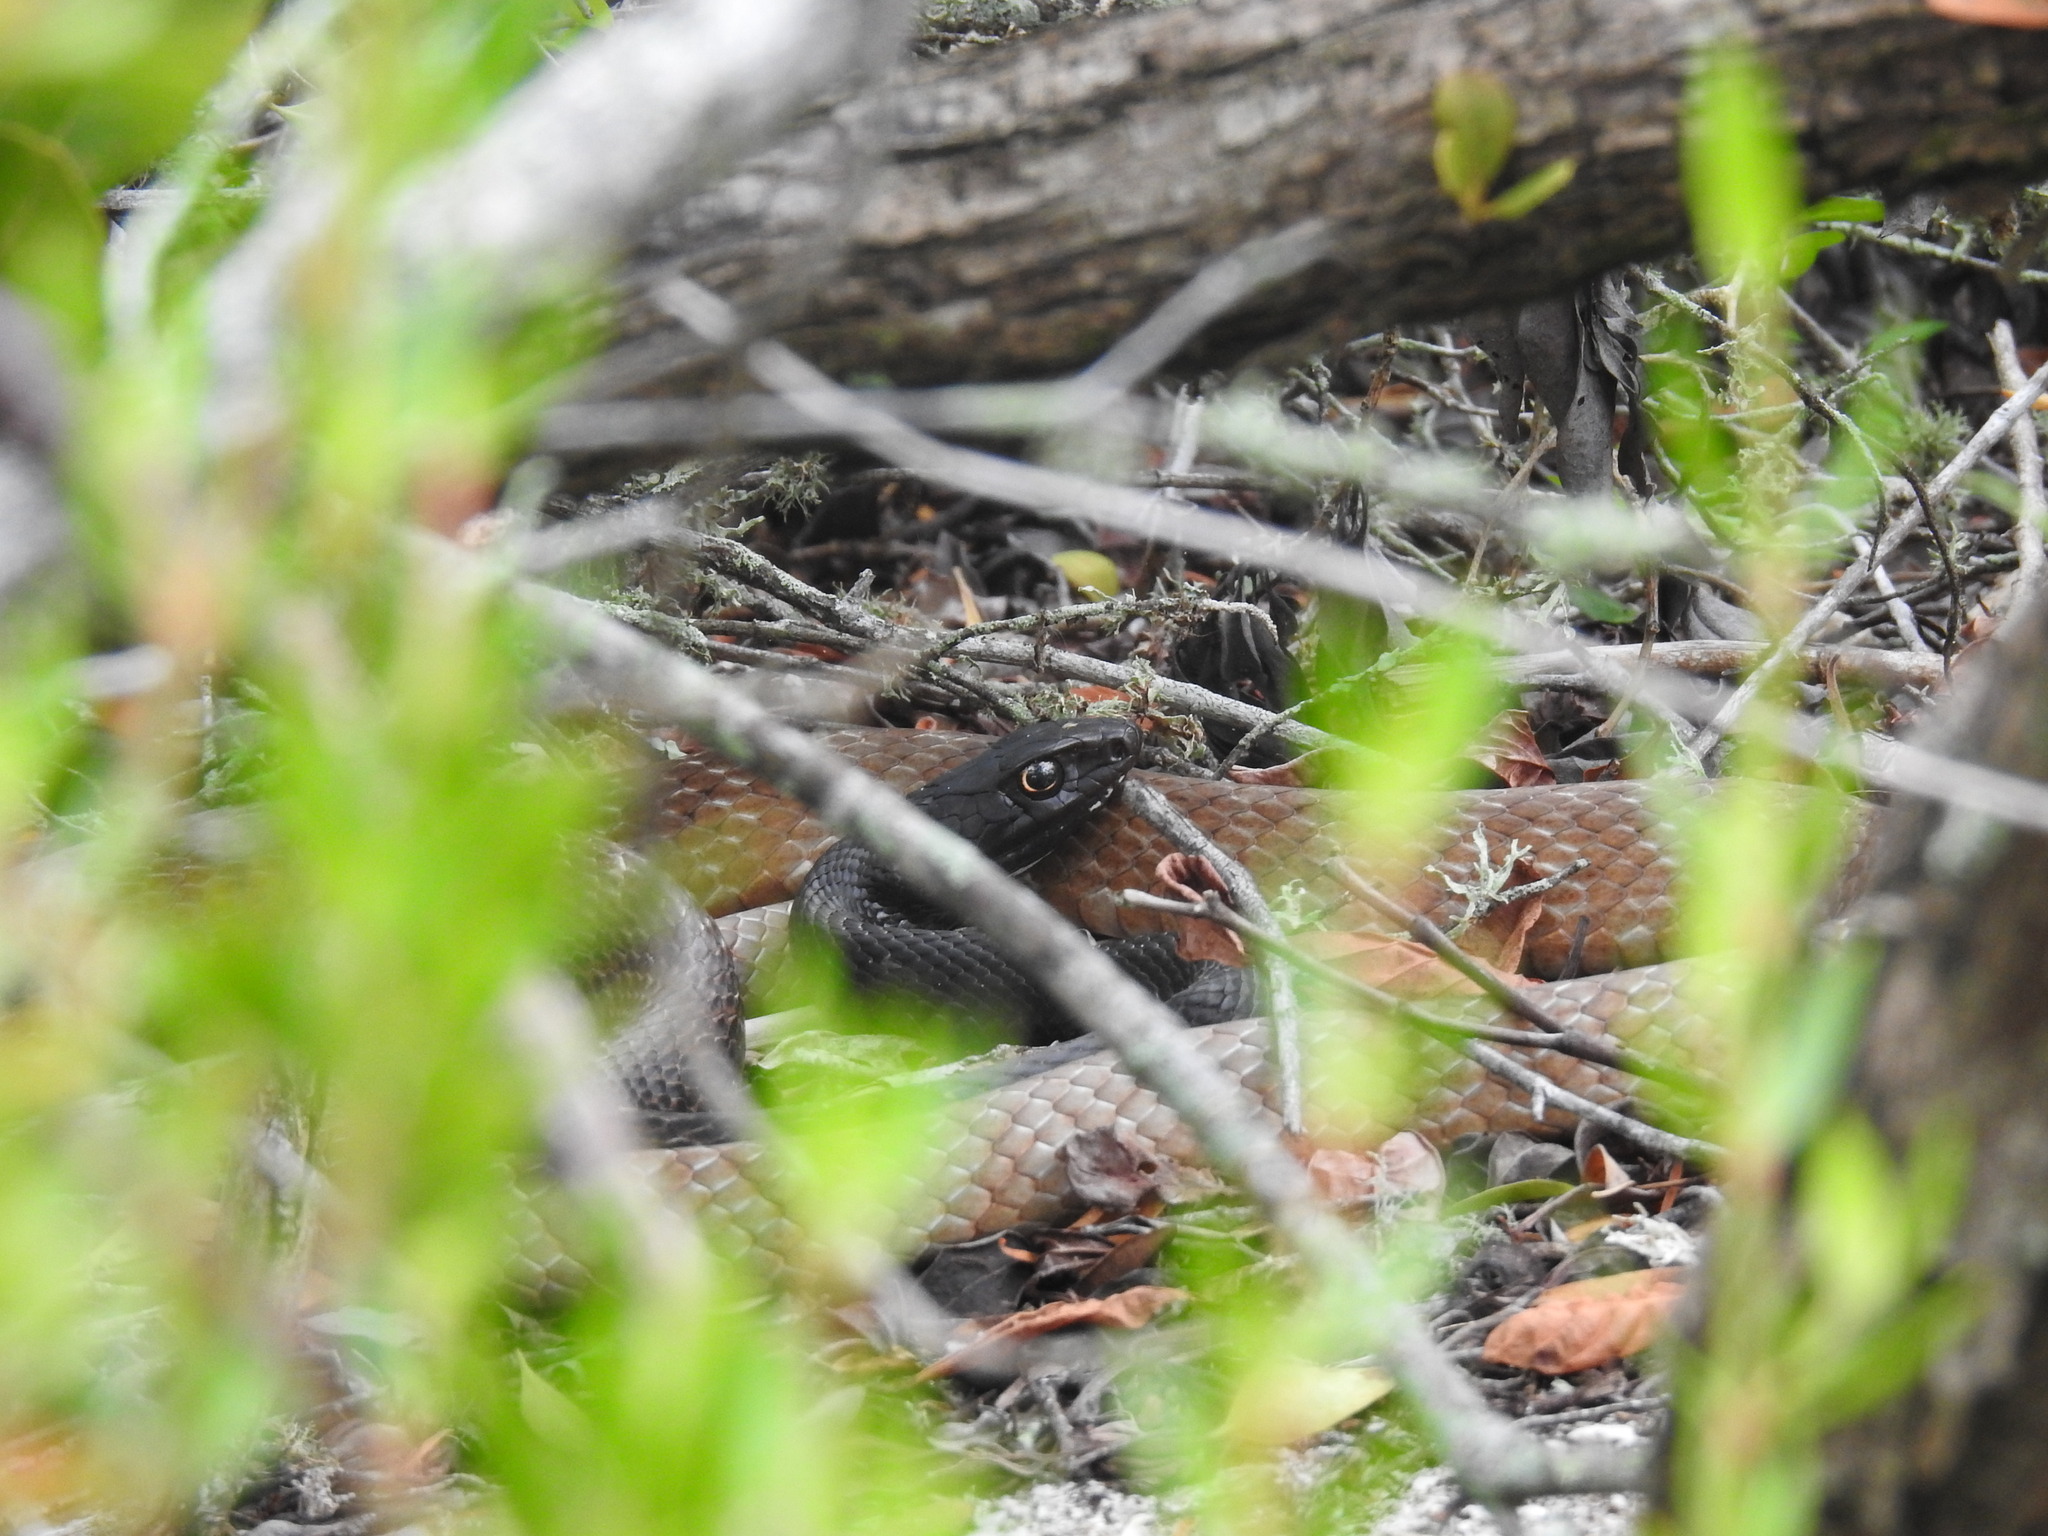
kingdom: Animalia
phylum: Chordata
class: Squamata
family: Colubridae
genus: Masticophis
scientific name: Masticophis flagellum
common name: Coachwhip
